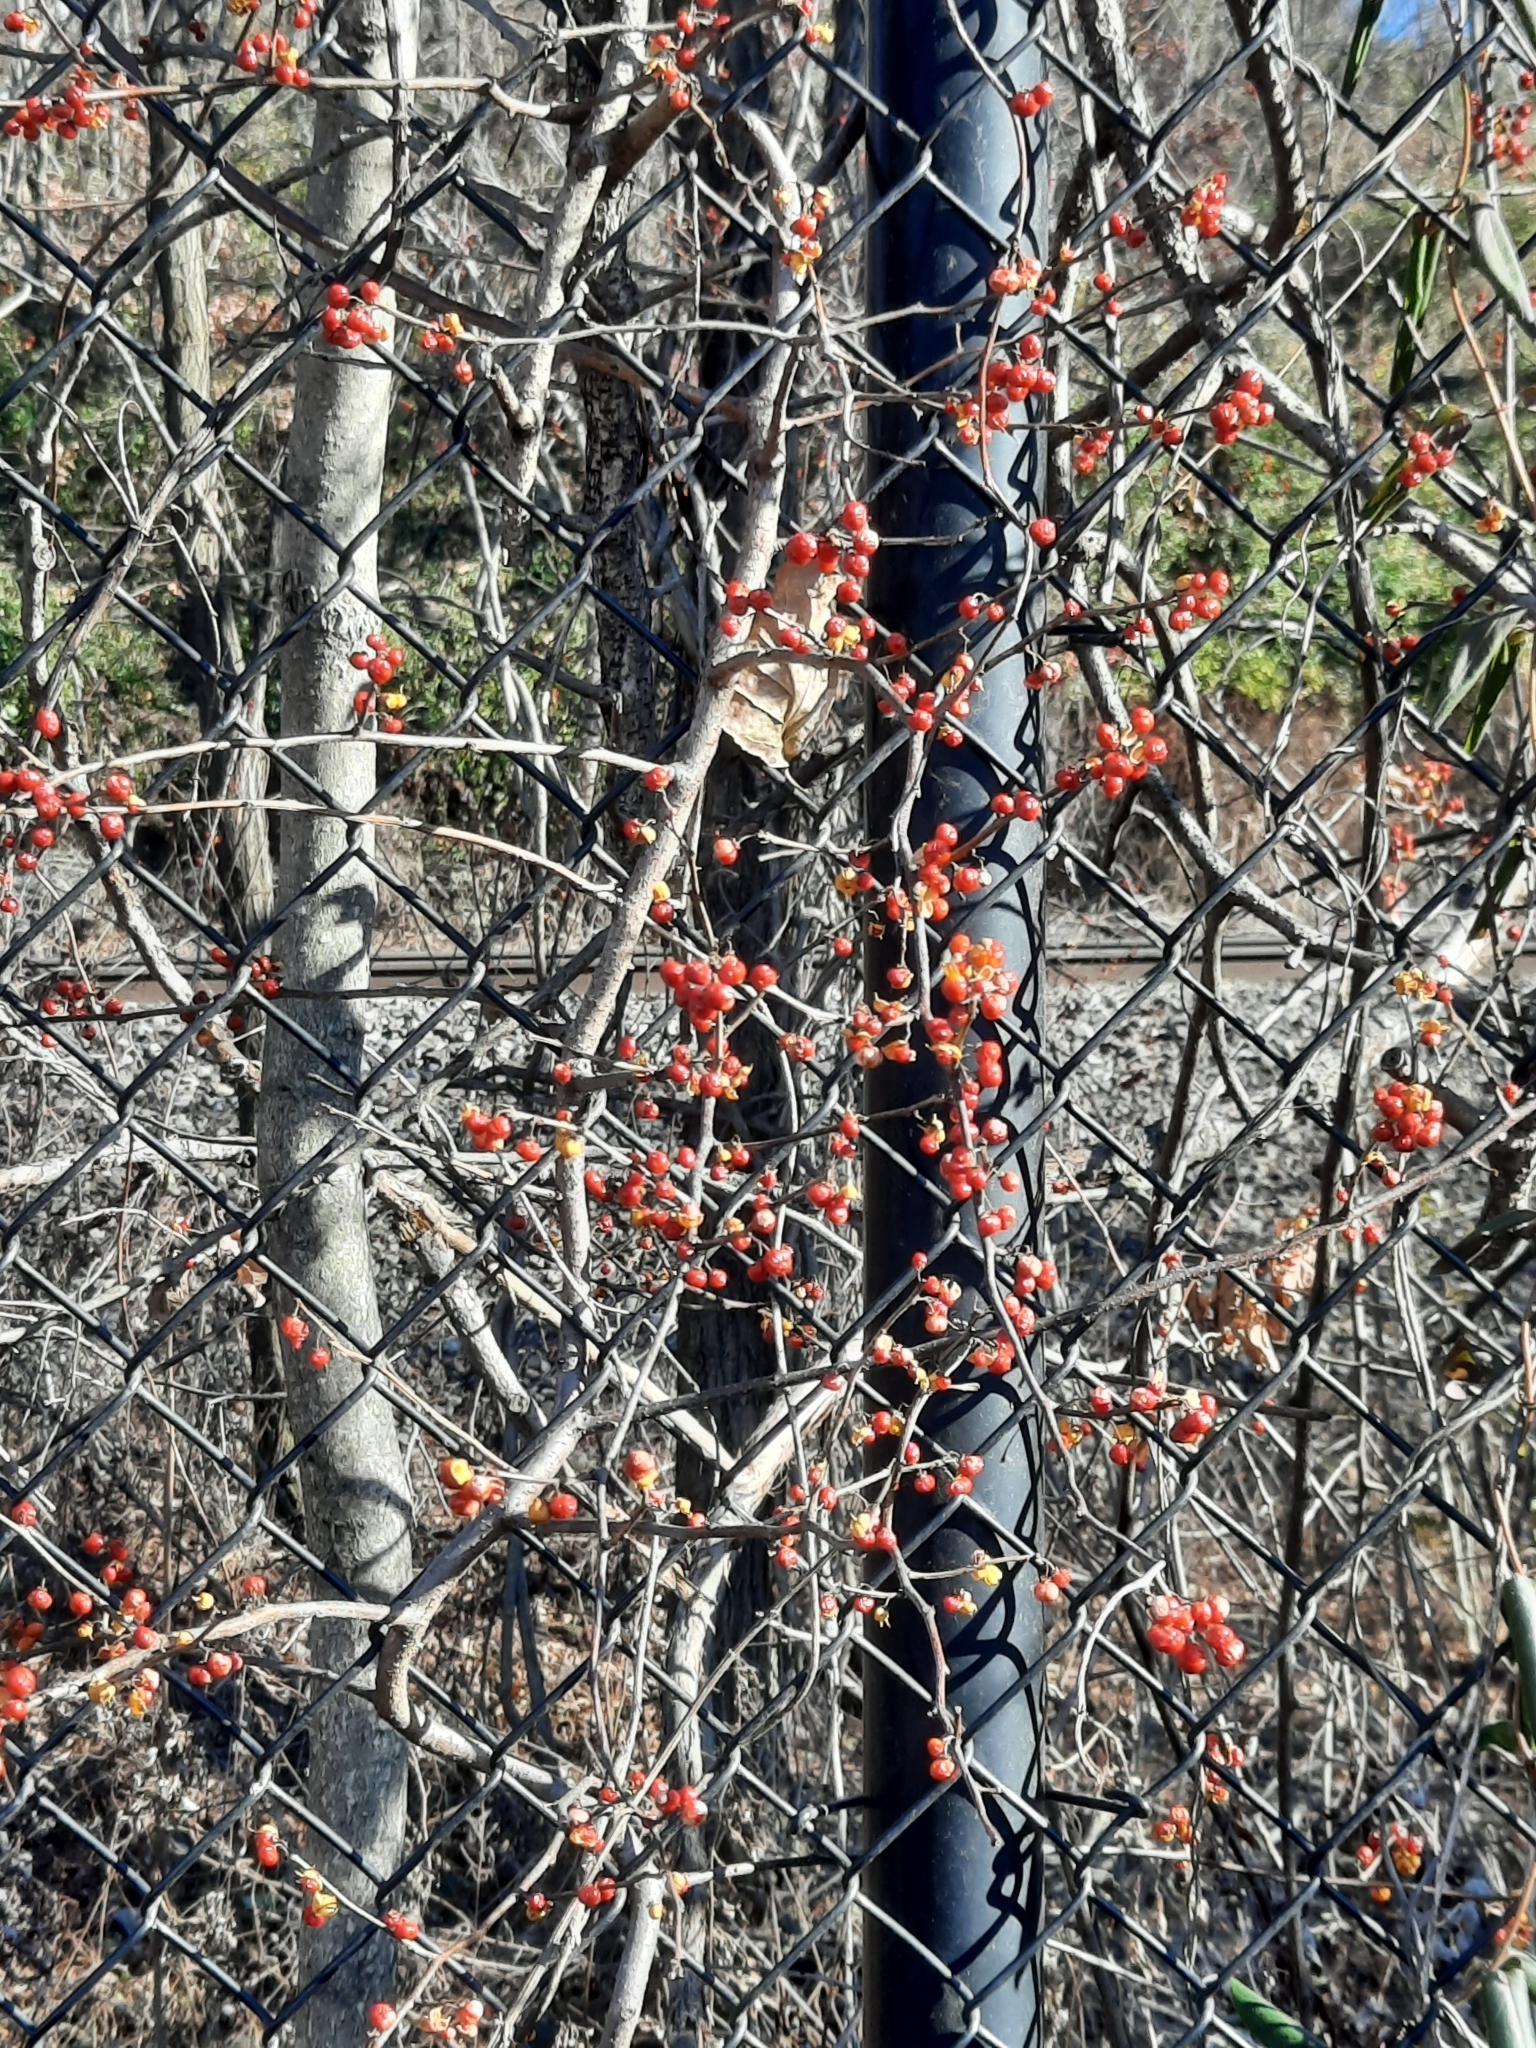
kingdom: Plantae
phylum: Tracheophyta
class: Magnoliopsida
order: Celastrales
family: Celastraceae
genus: Celastrus
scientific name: Celastrus orbiculatus
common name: Oriental bittersweet
